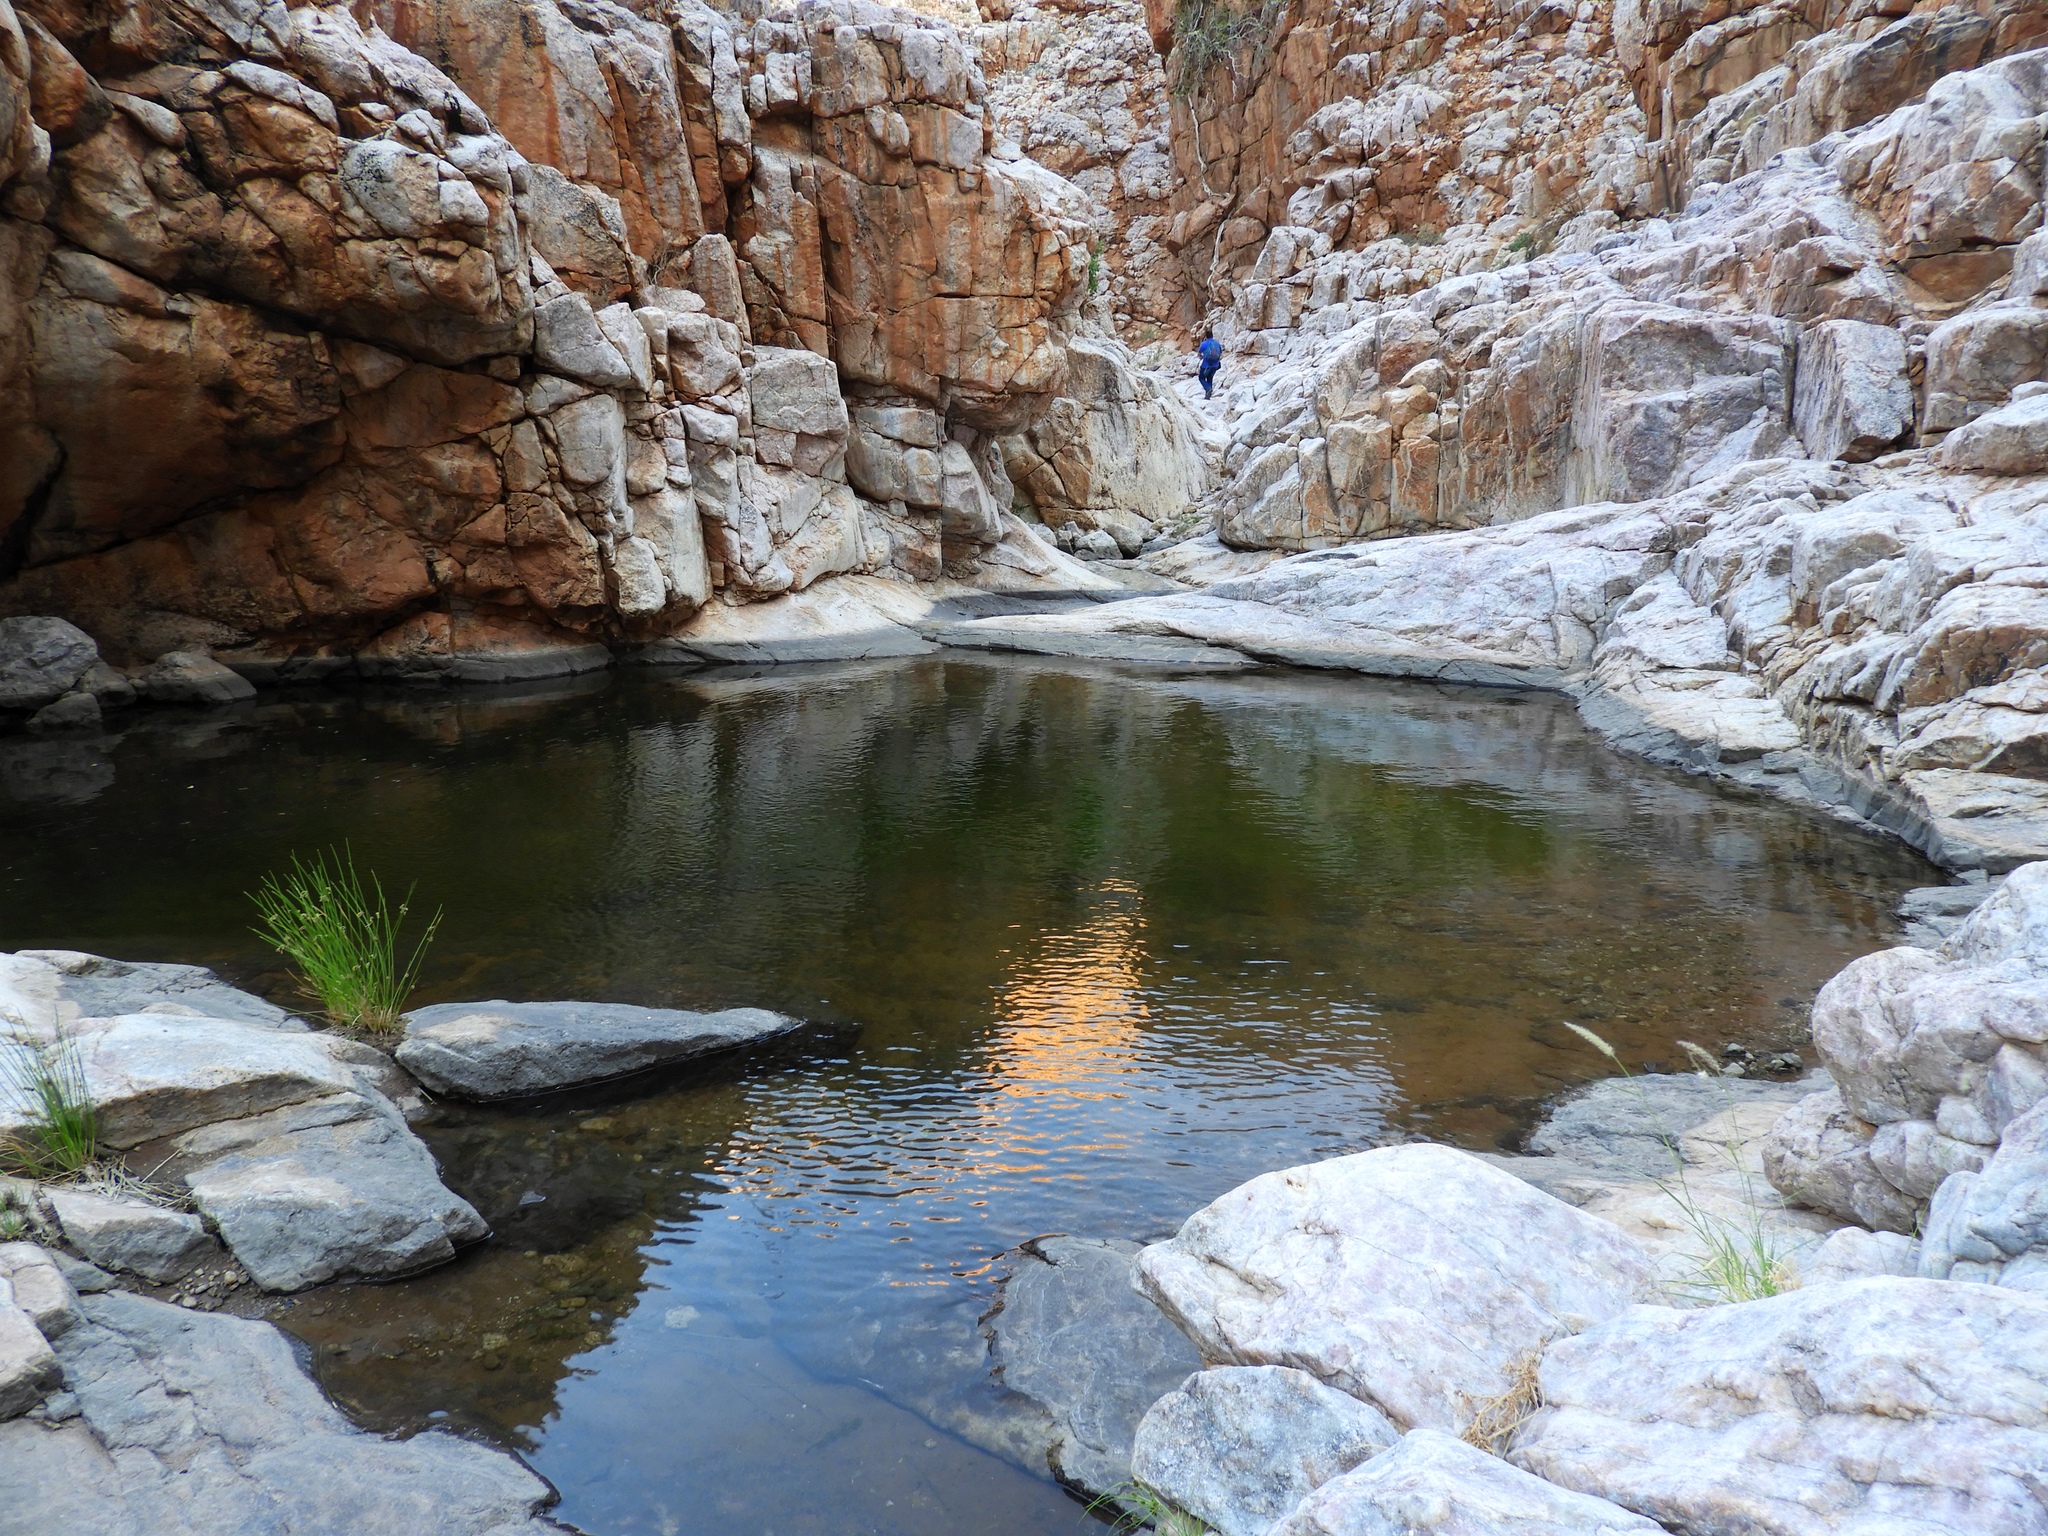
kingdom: Animalia
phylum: Chordata
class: Amphibia
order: Anura
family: Microhylidae
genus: Phrynomantis
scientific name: Phrynomantis annectens
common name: Marbled rubber frog
